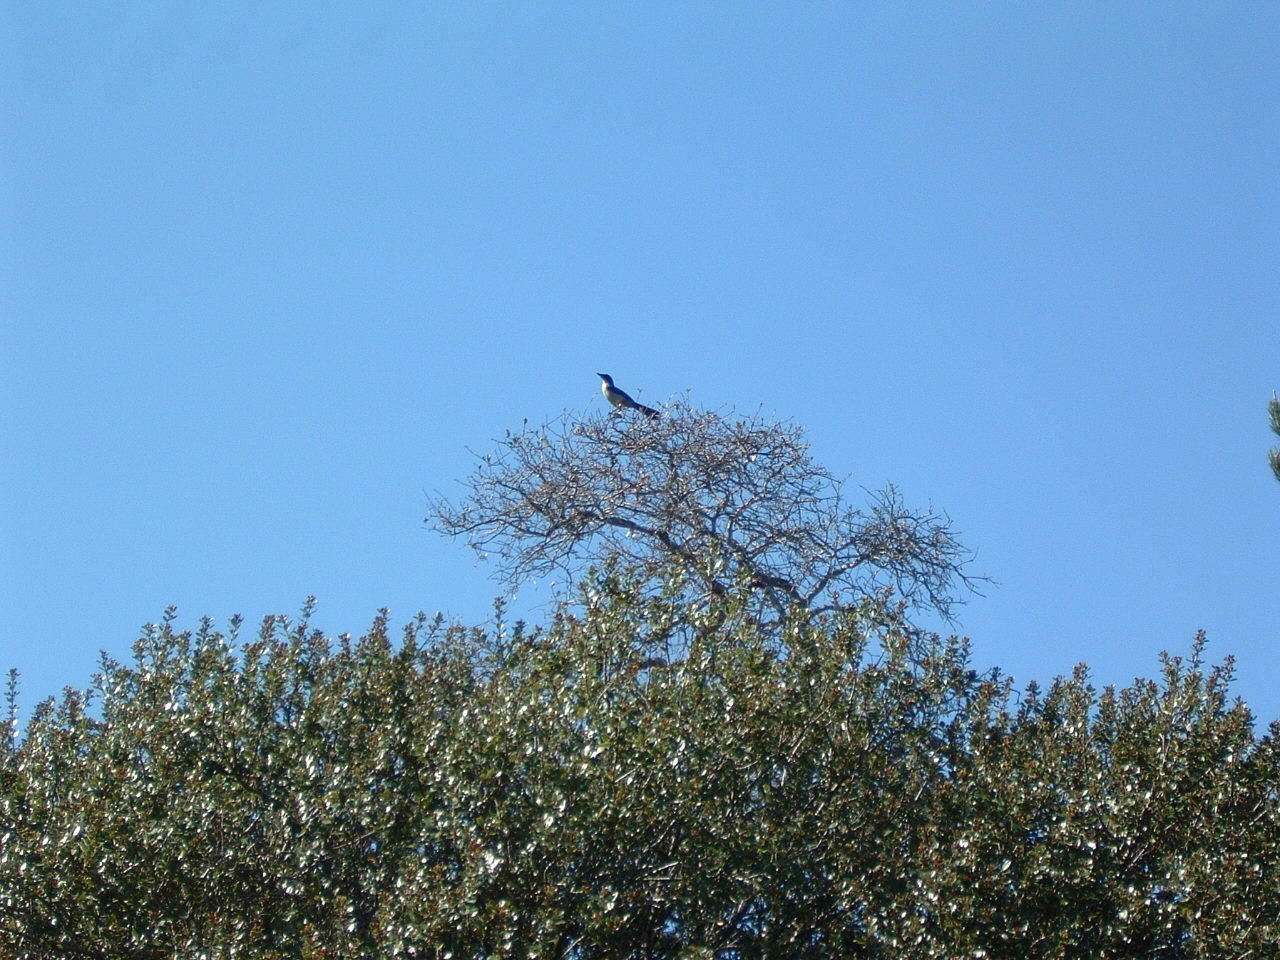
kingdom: Animalia
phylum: Chordata
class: Aves
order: Passeriformes
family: Corvidae
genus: Aphelocoma
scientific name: Aphelocoma insularis
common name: Island scrub-jay
